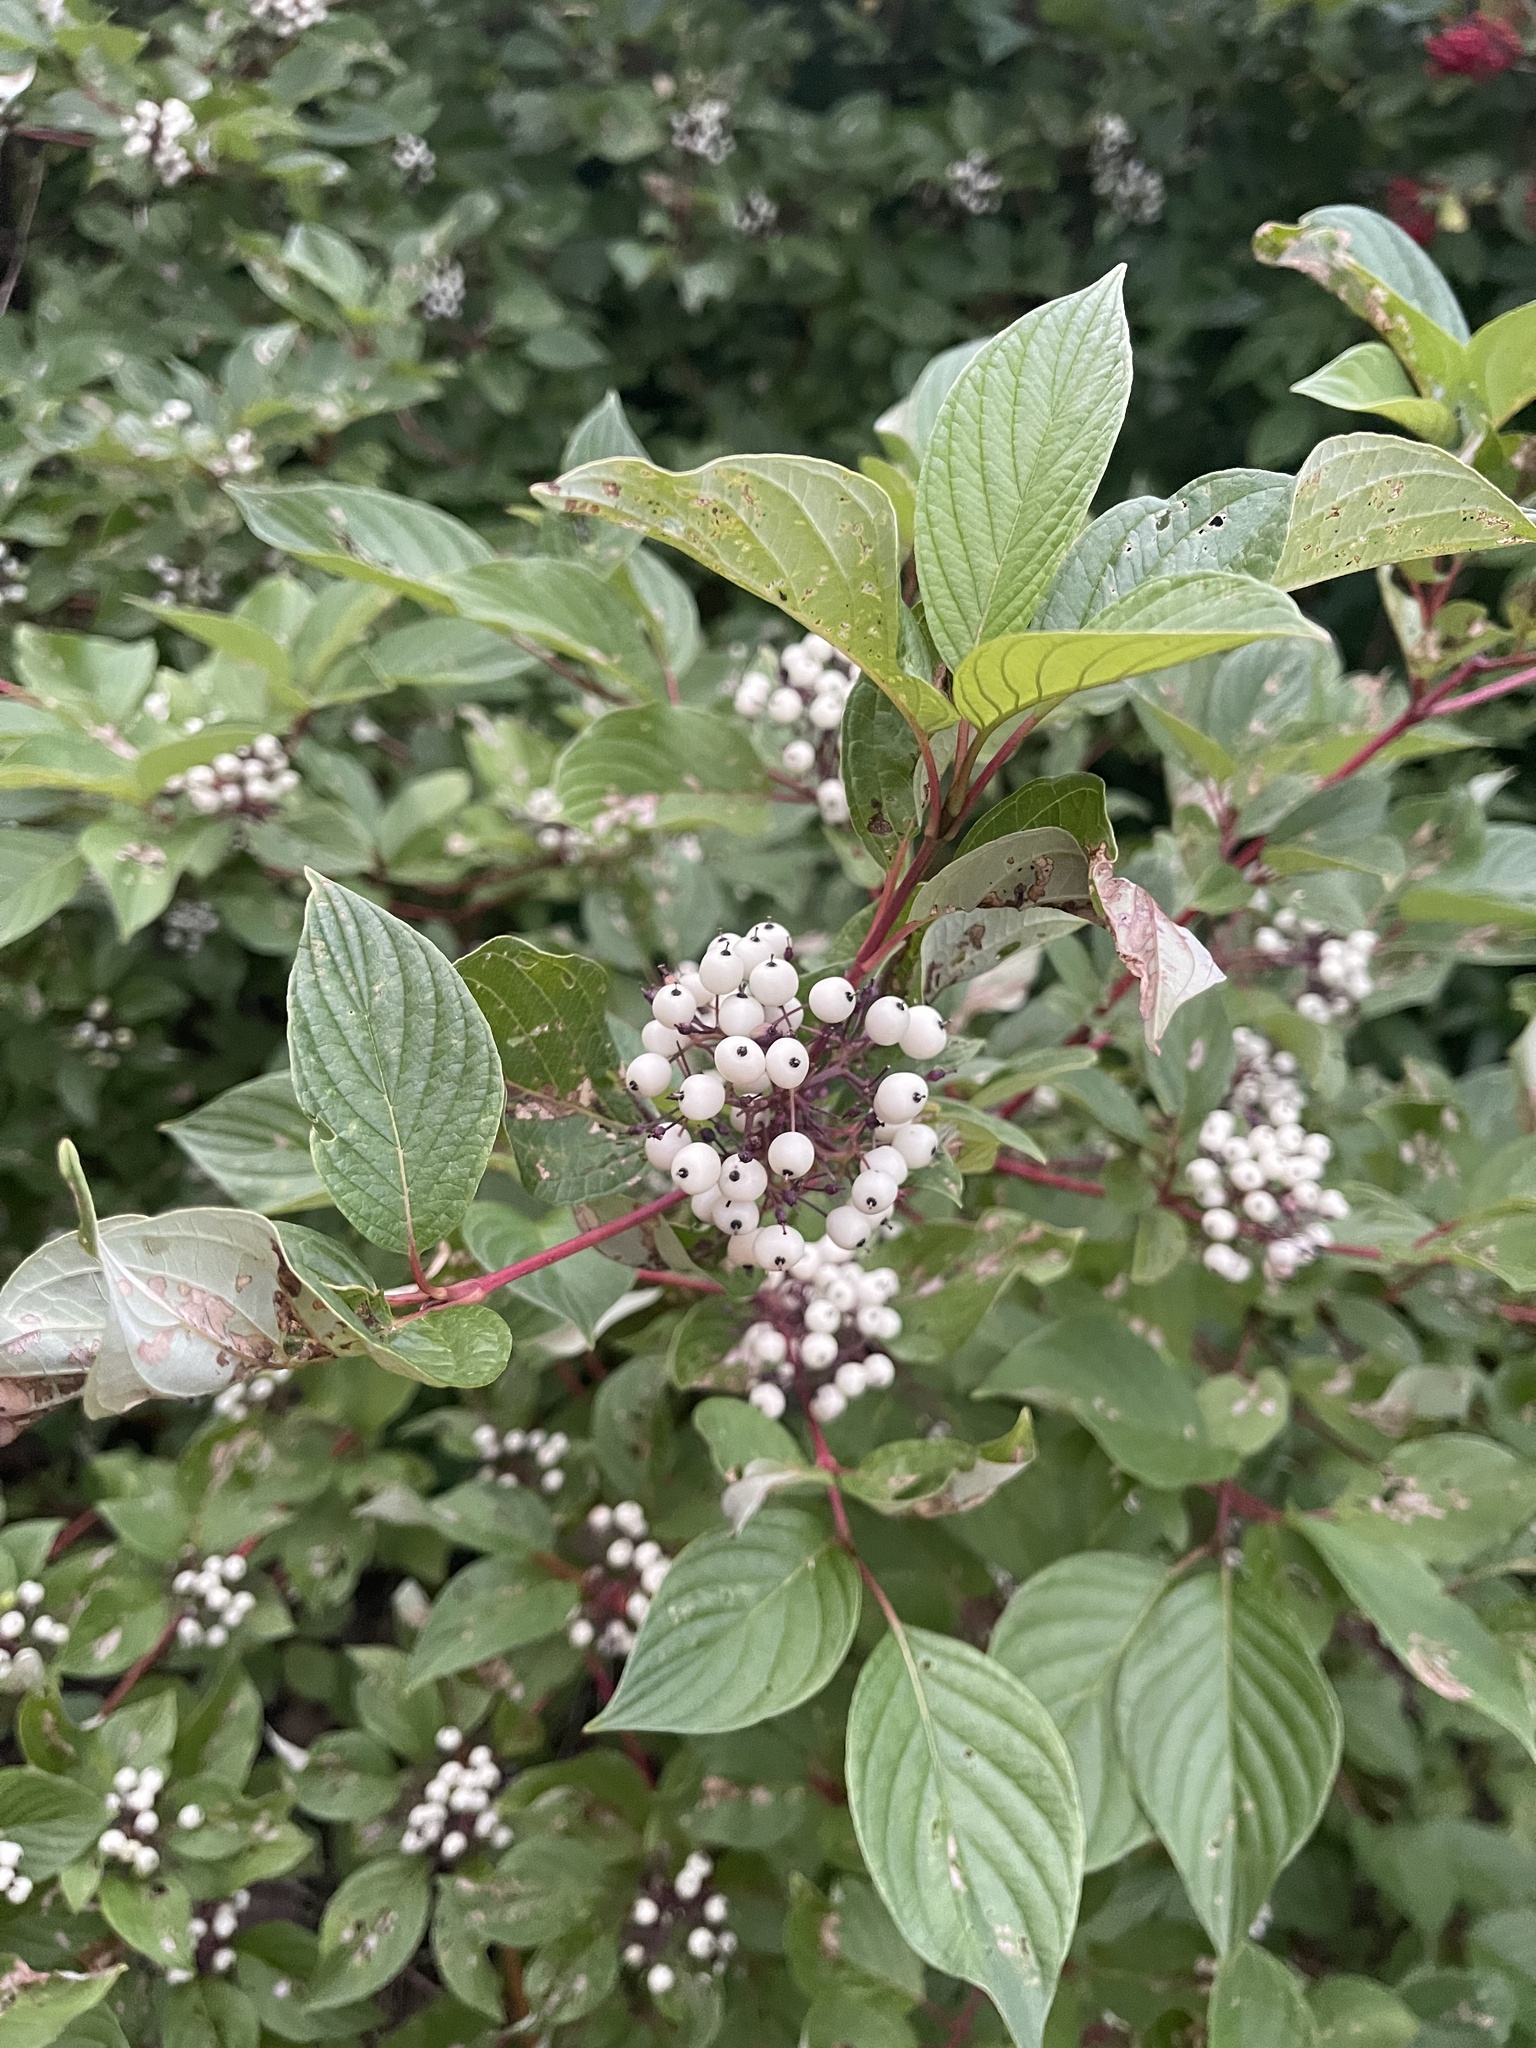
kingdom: Plantae
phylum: Tracheophyta
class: Magnoliopsida
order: Cornales
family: Cornaceae
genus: Cornus
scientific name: Cornus sericea
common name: Red-osier dogwood
